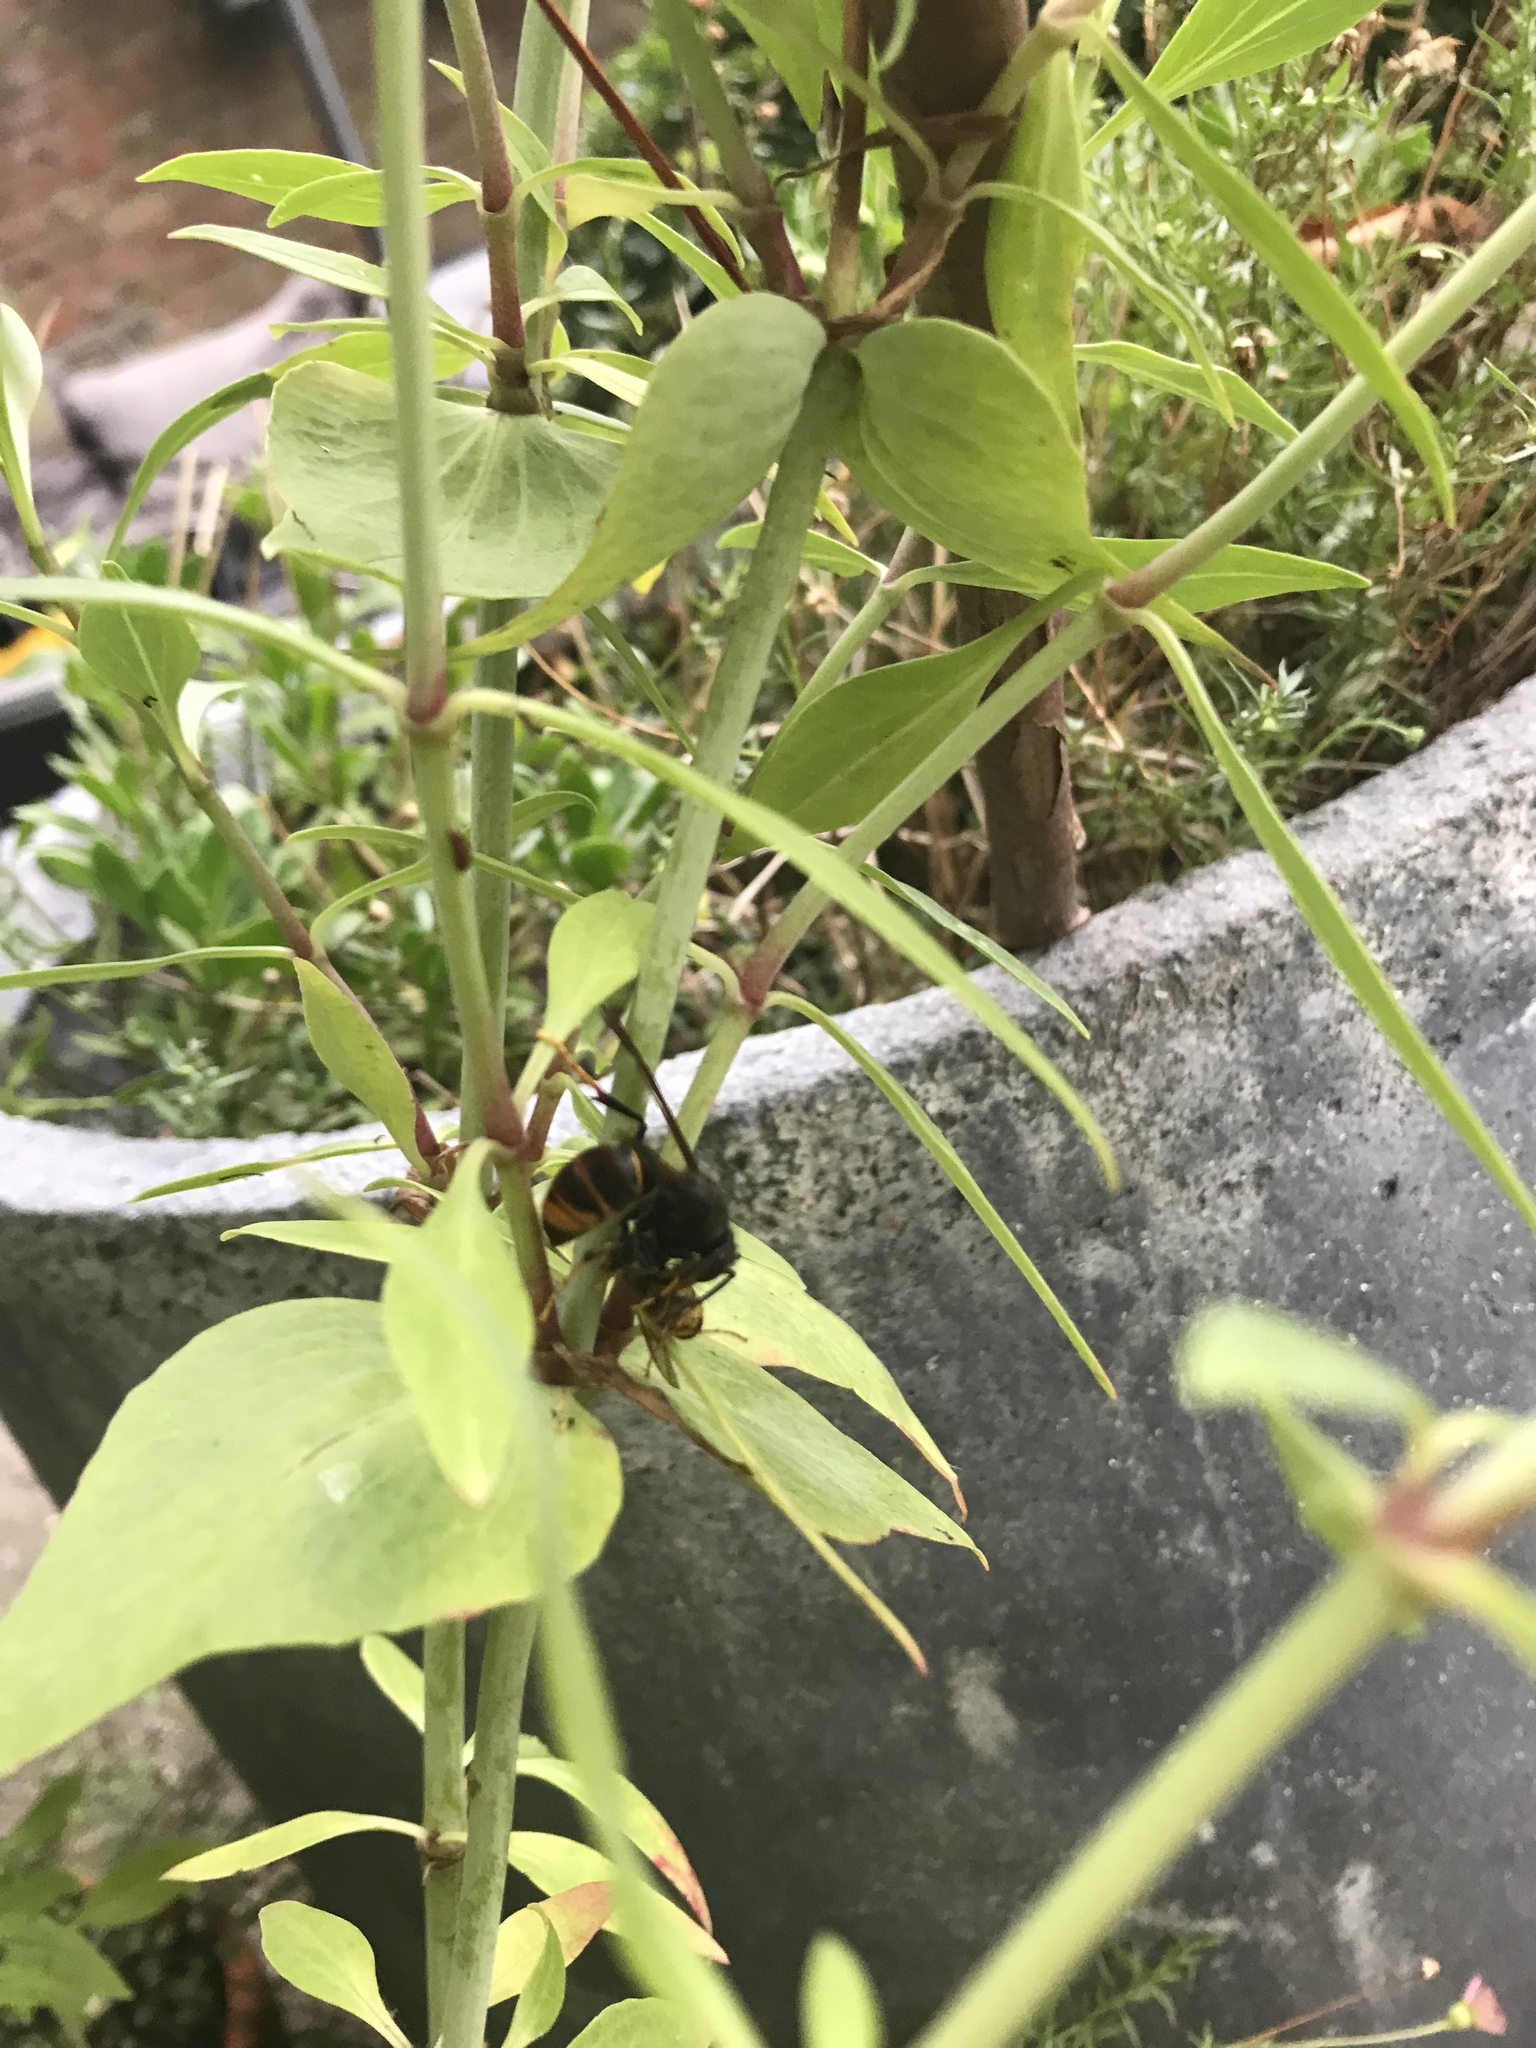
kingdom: Animalia
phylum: Arthropoda
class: Insecta
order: Hymenoptera
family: Vespidae
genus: Vespa
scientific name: Vespa velutina
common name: Asian hornet
